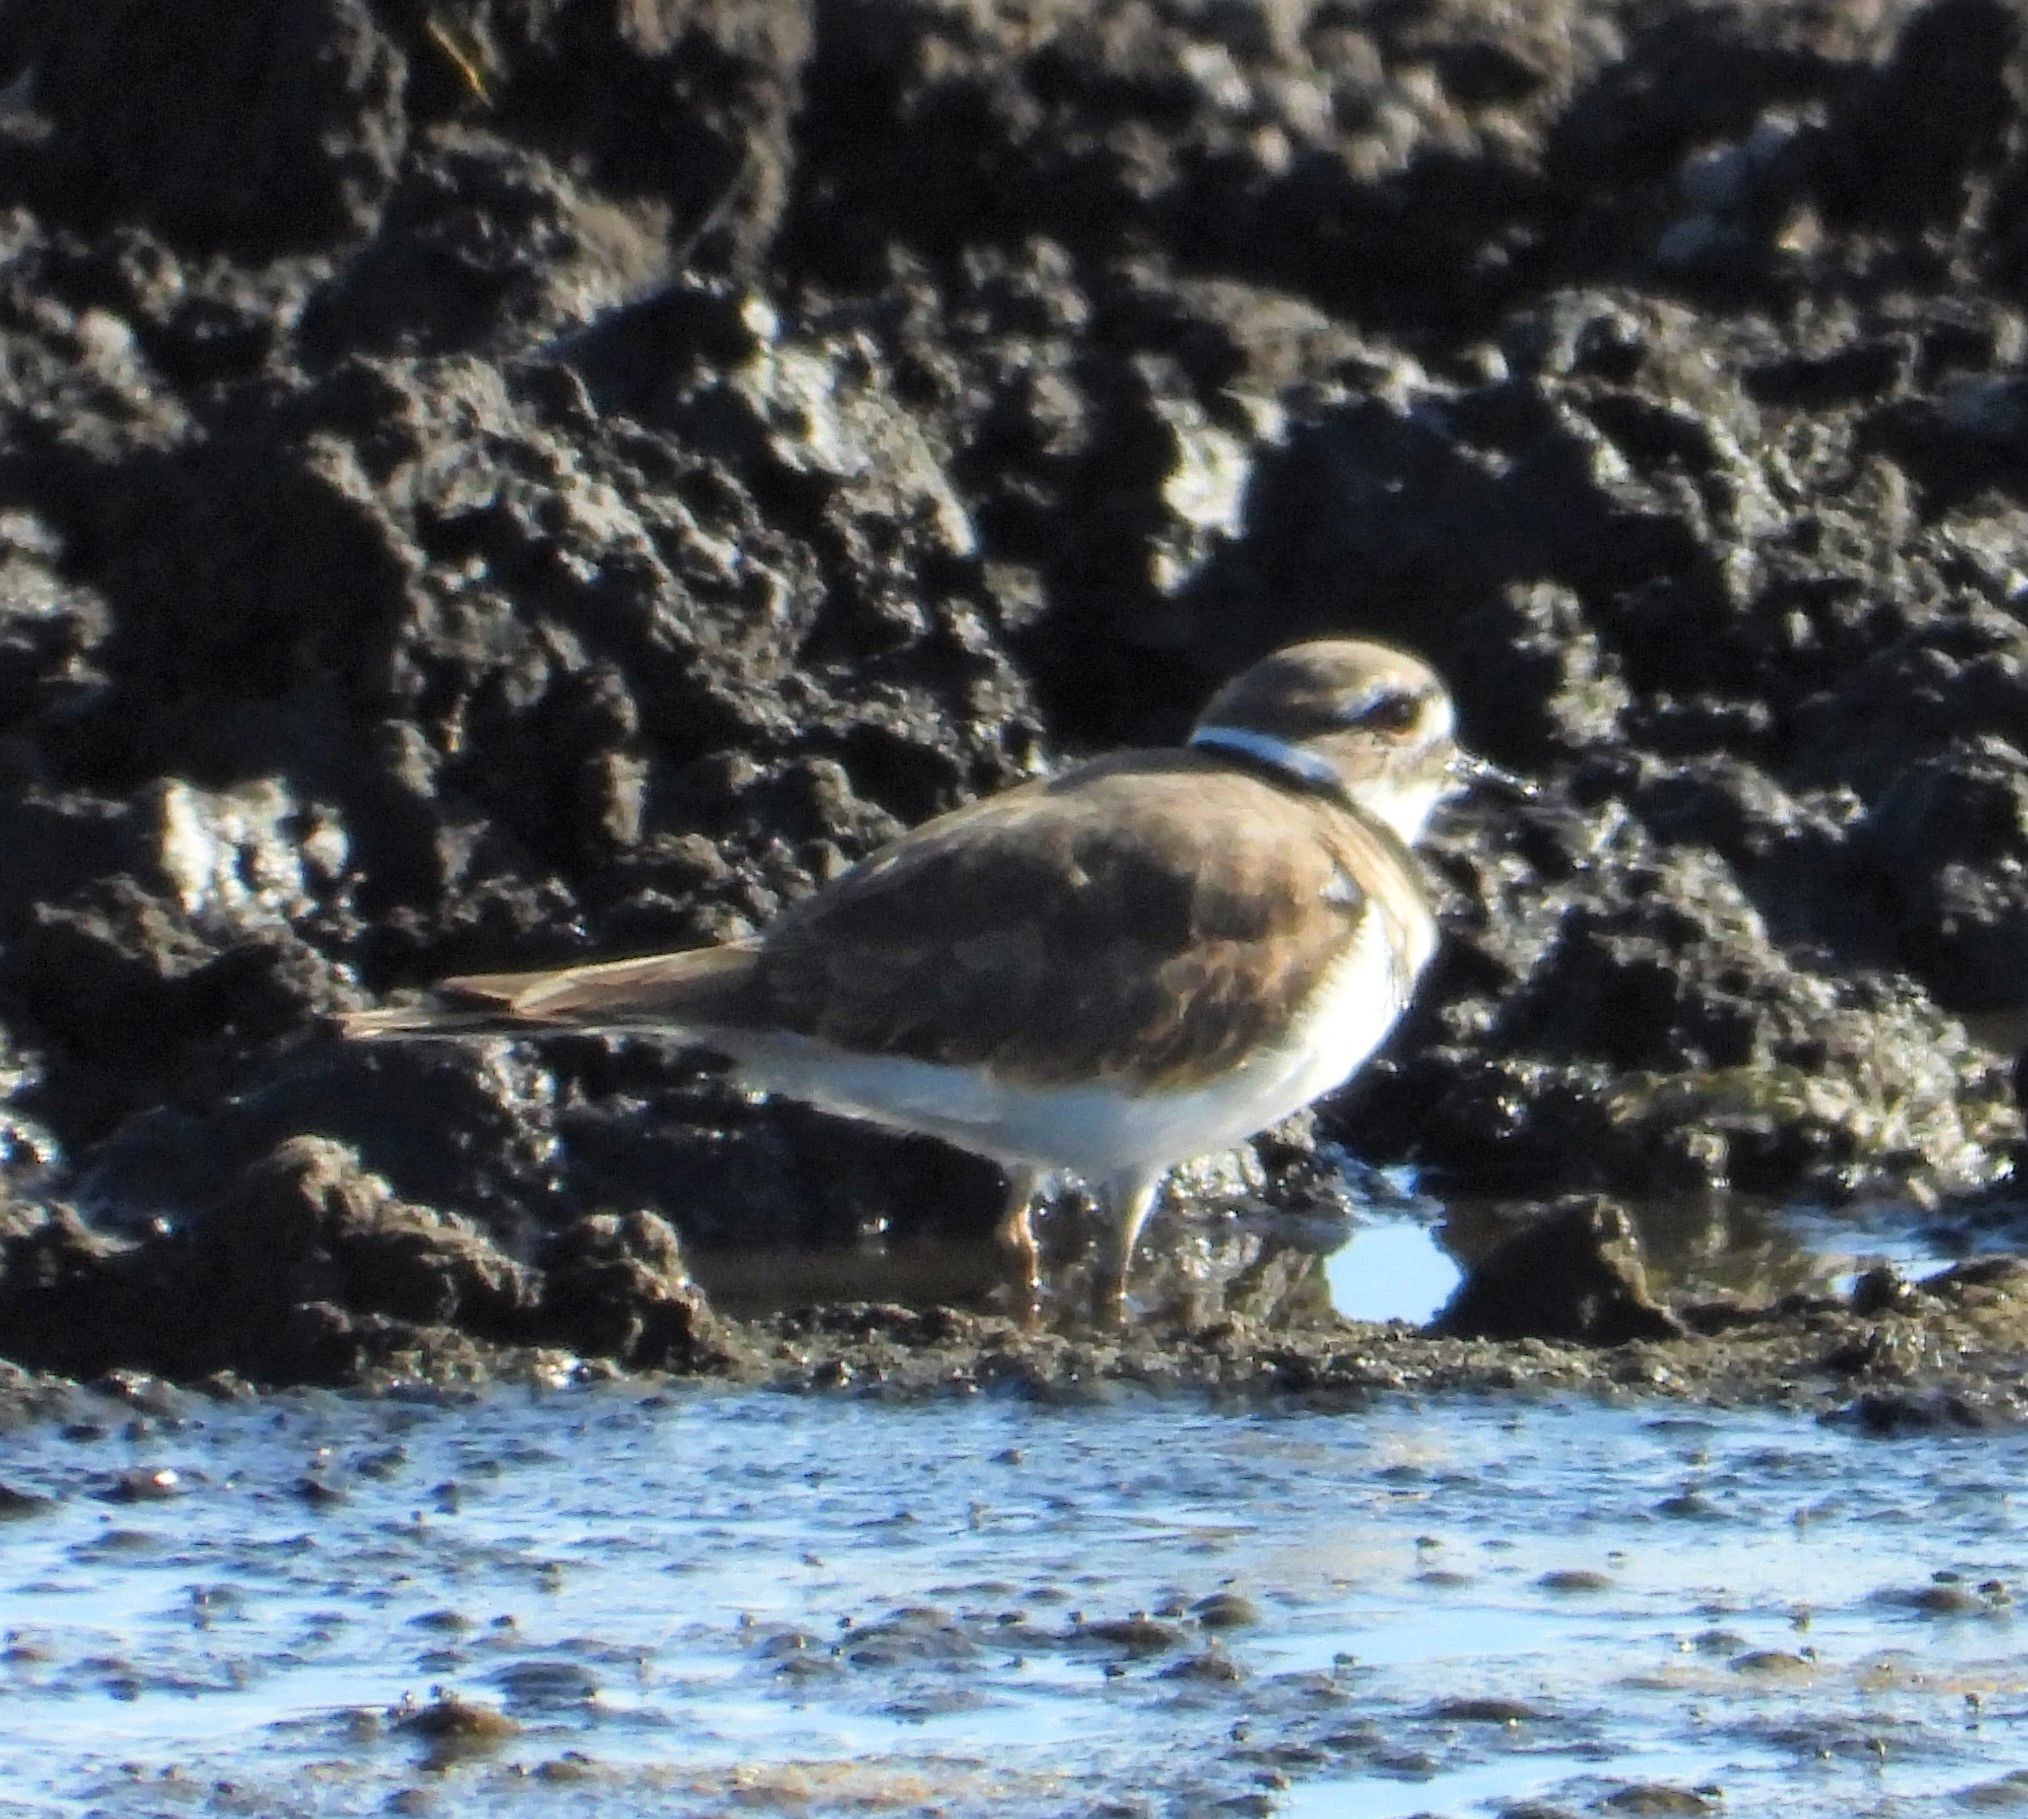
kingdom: Animalia
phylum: Chordata
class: Aves
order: Charadriiformes
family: Charadriidae
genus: Charadrius
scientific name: Charadrius vociferus
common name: Killdeer
